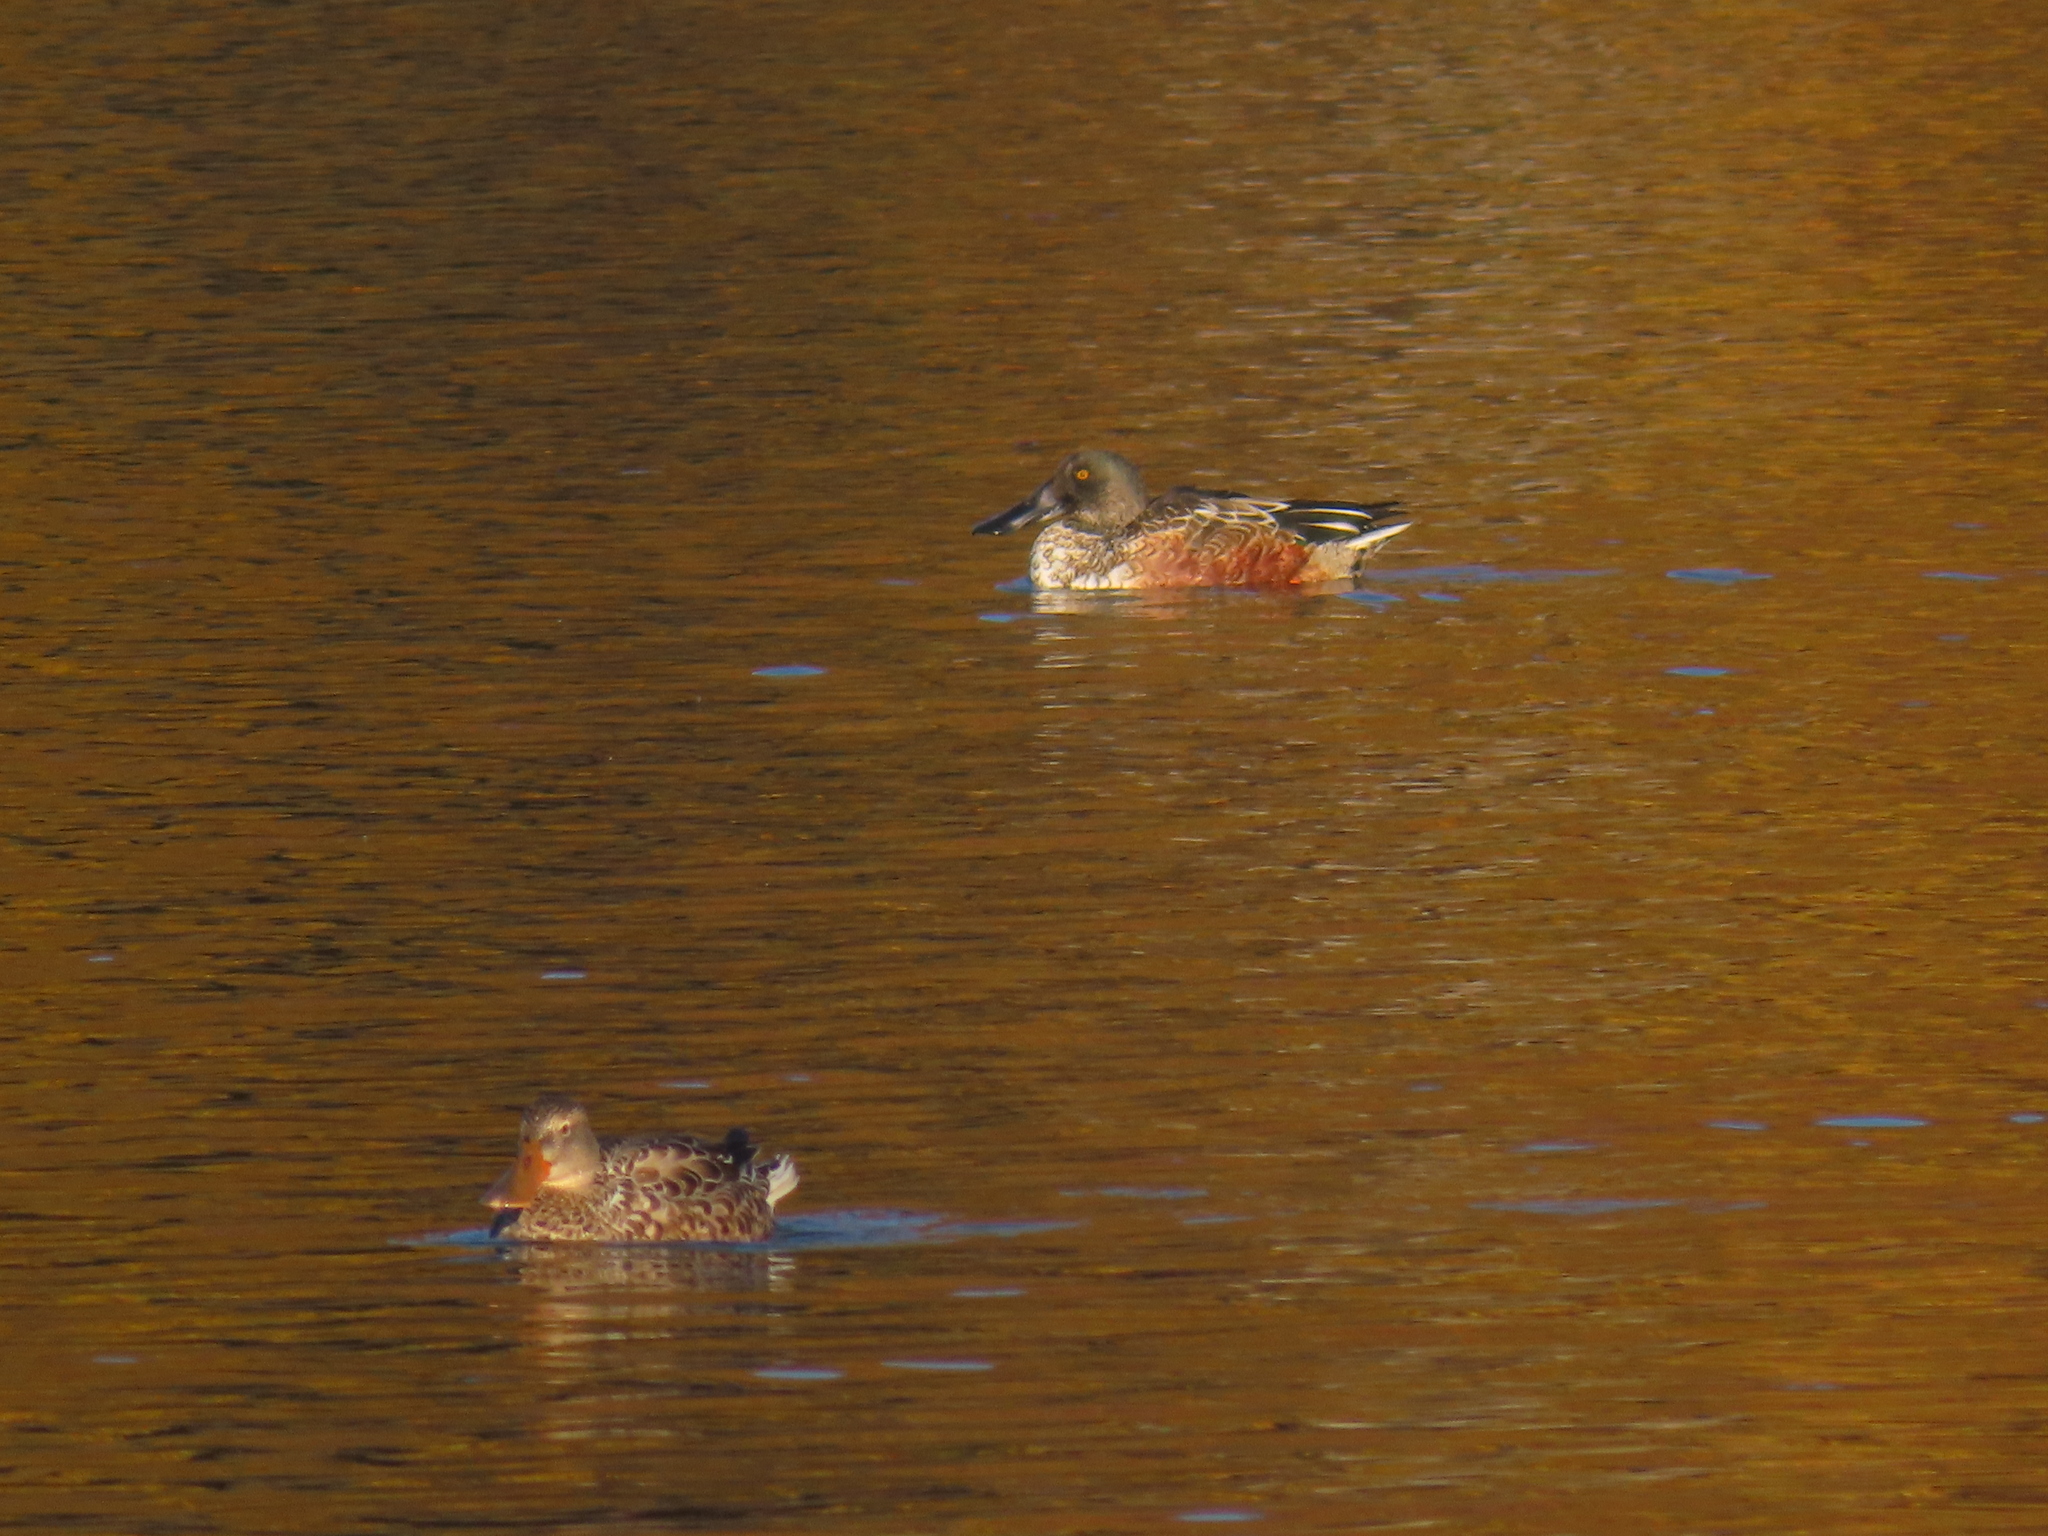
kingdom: Animalia
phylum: Chordata
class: Aves
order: Anseriformes
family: Anatidae
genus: Spatula
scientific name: Spatula clypeata
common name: Northern shoveler
